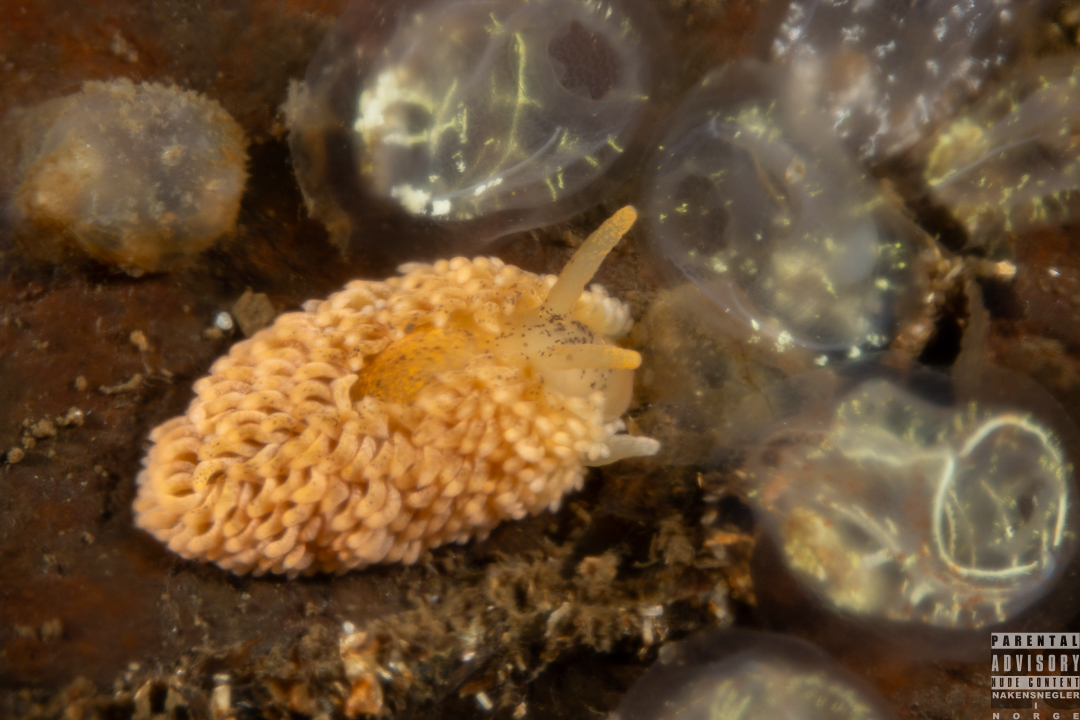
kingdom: Animalia
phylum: Mollusca
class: Gastropoda
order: Nudibranchia
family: Aeolidiidae
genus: Aeolidia
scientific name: Aeolidia papillosa
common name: Common grey sea slug
